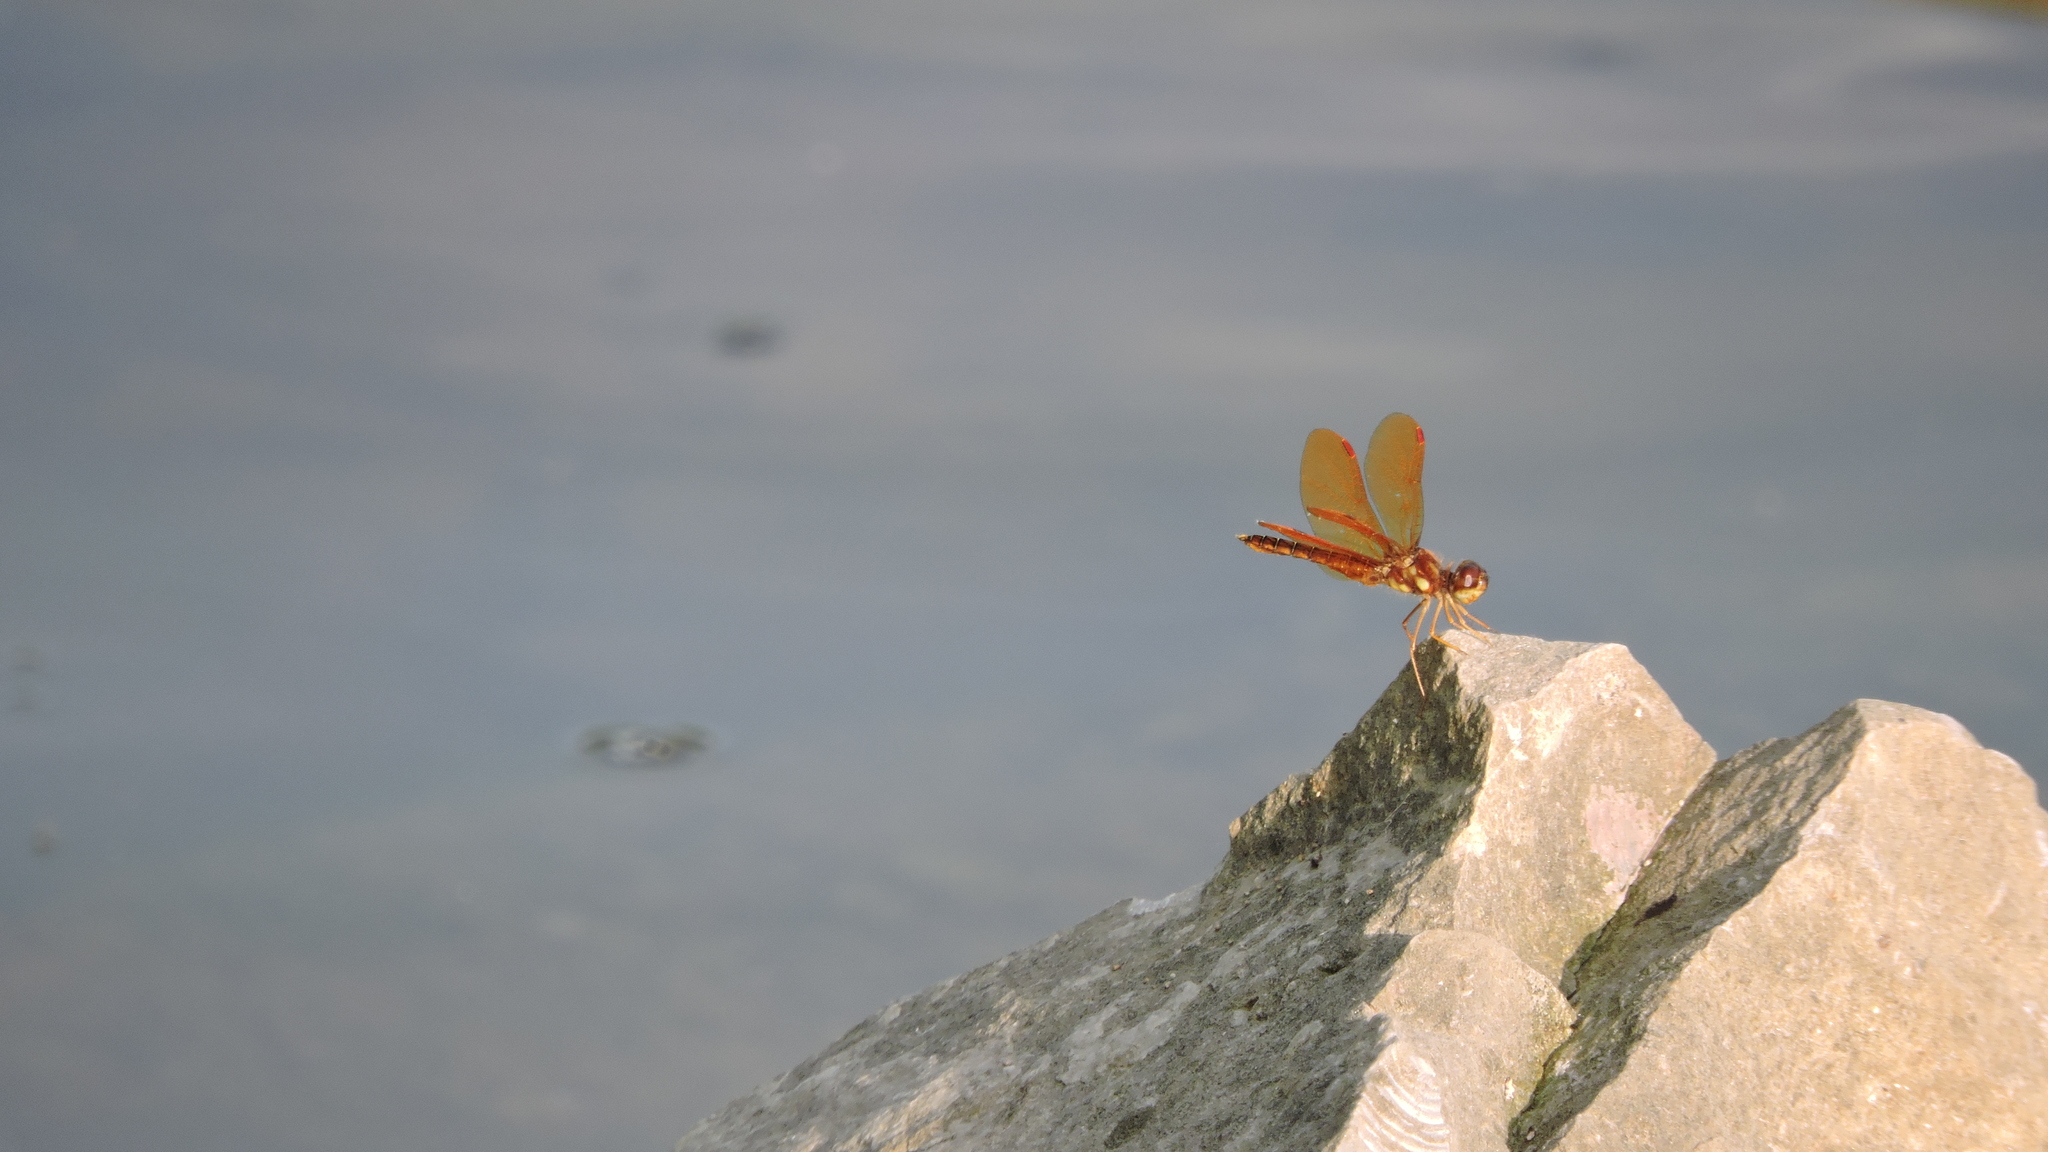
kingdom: Animalia
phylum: Arthropoda
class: Insecta
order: Odonata
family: Libellulidae
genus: Perithemis
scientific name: Perithemis tenera
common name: Eastern amberwing
